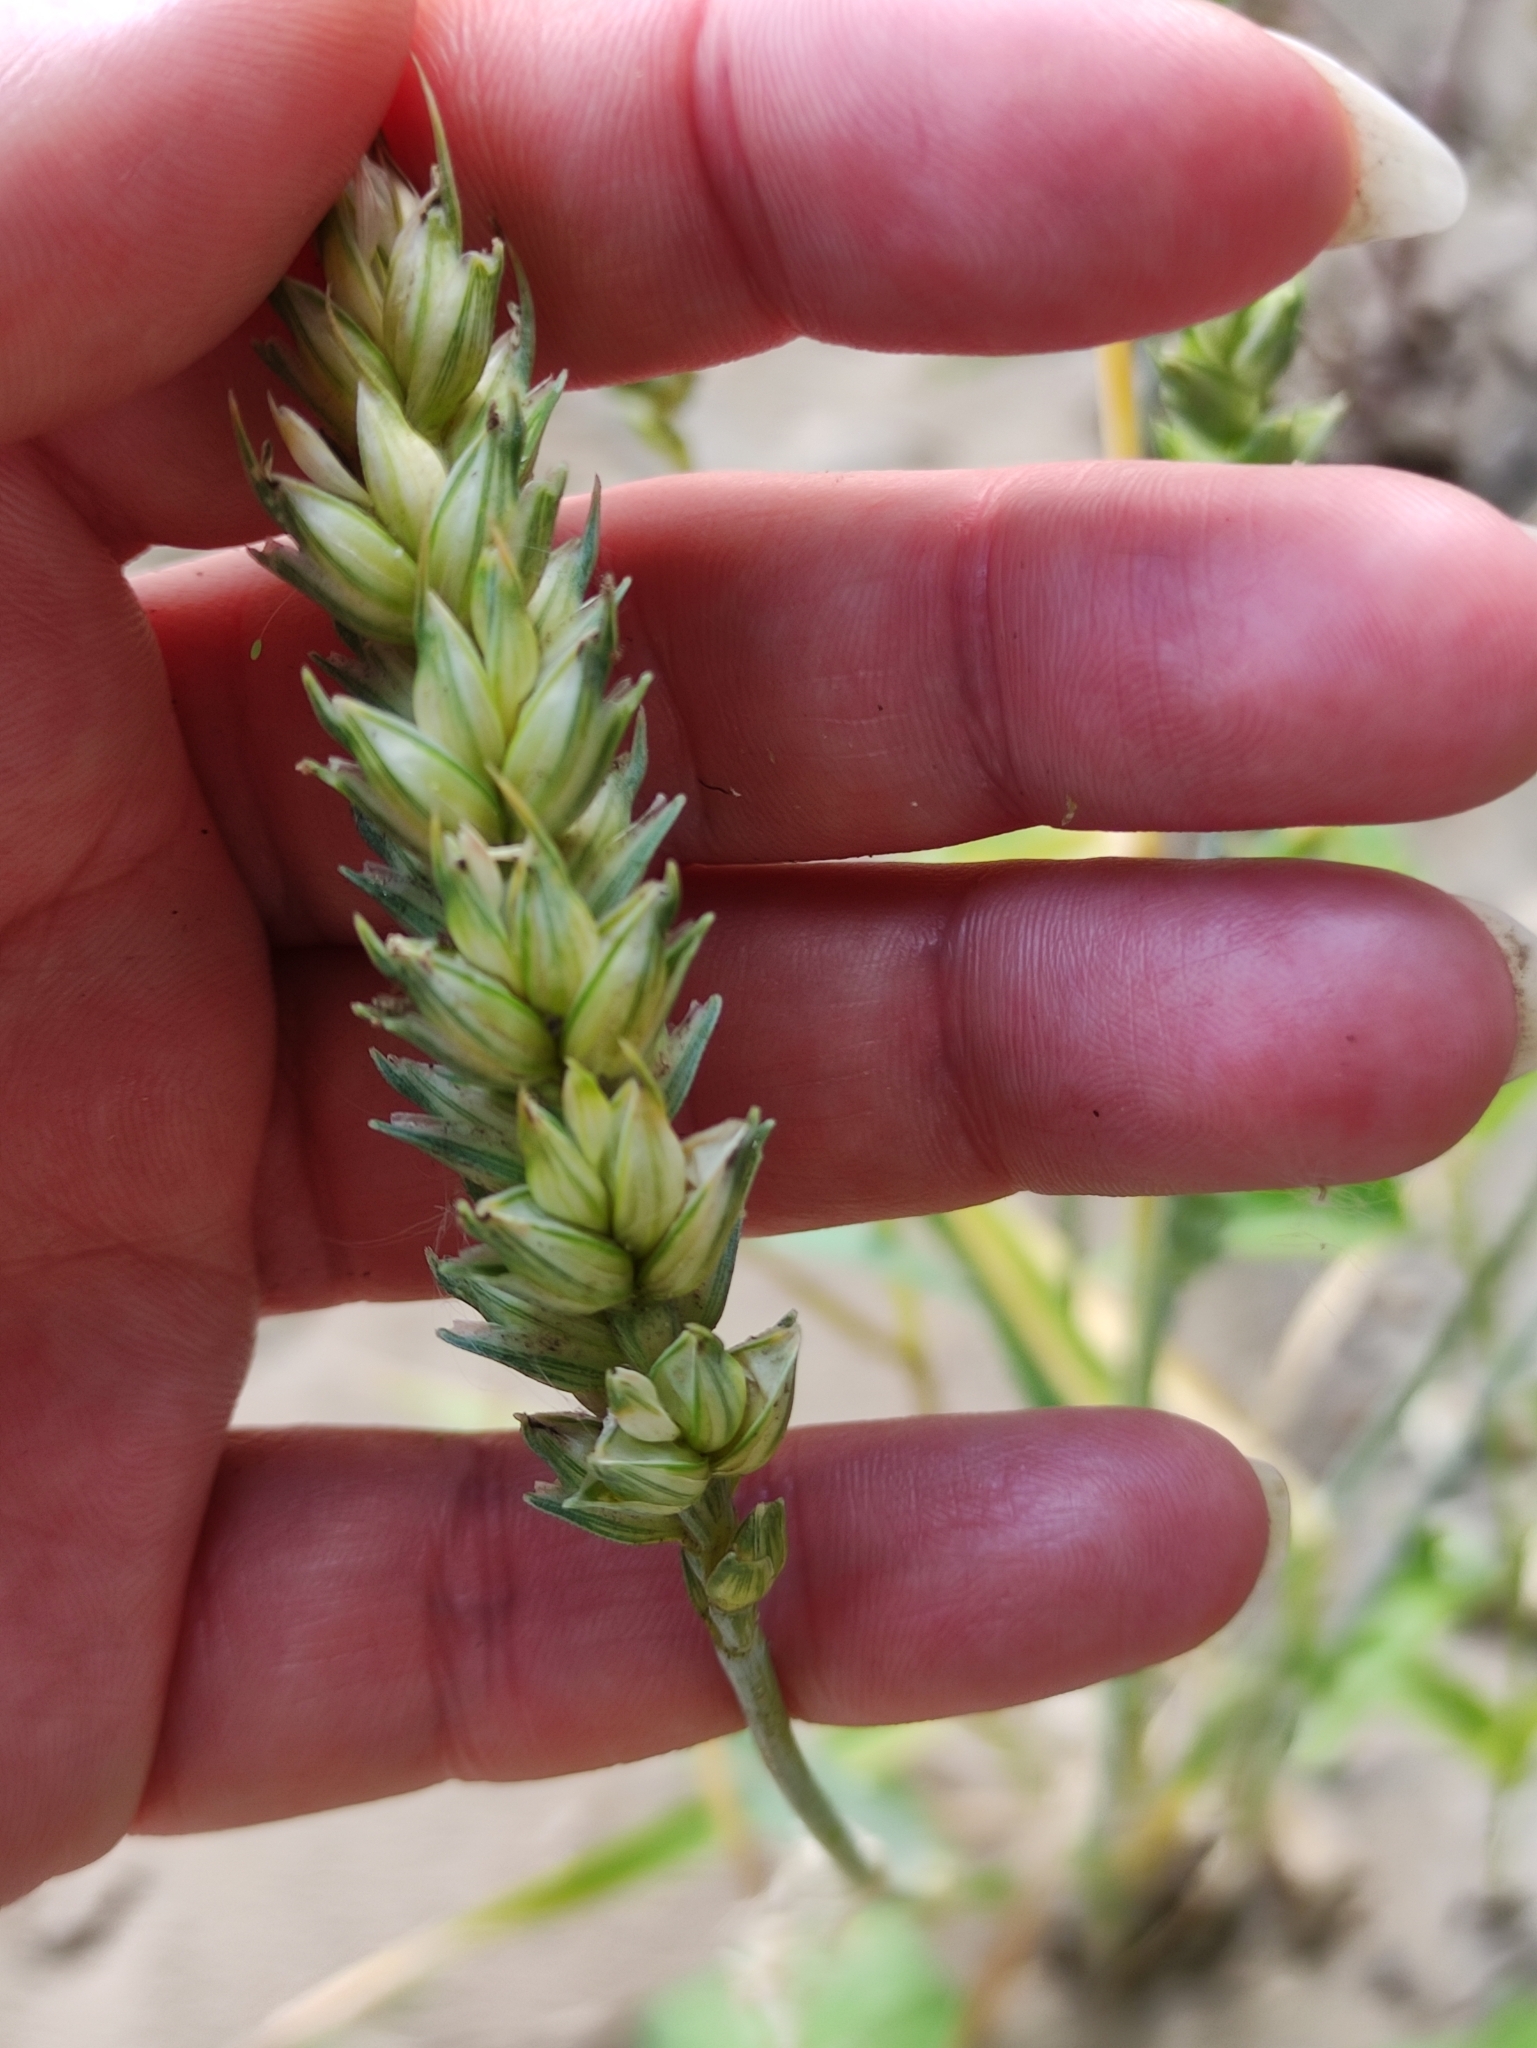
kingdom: Plantae
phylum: Tracheophyta
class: Liliopsida
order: Poales
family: Poaceae
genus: Triticum
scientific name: Triticum aestivum
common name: Common wheat
